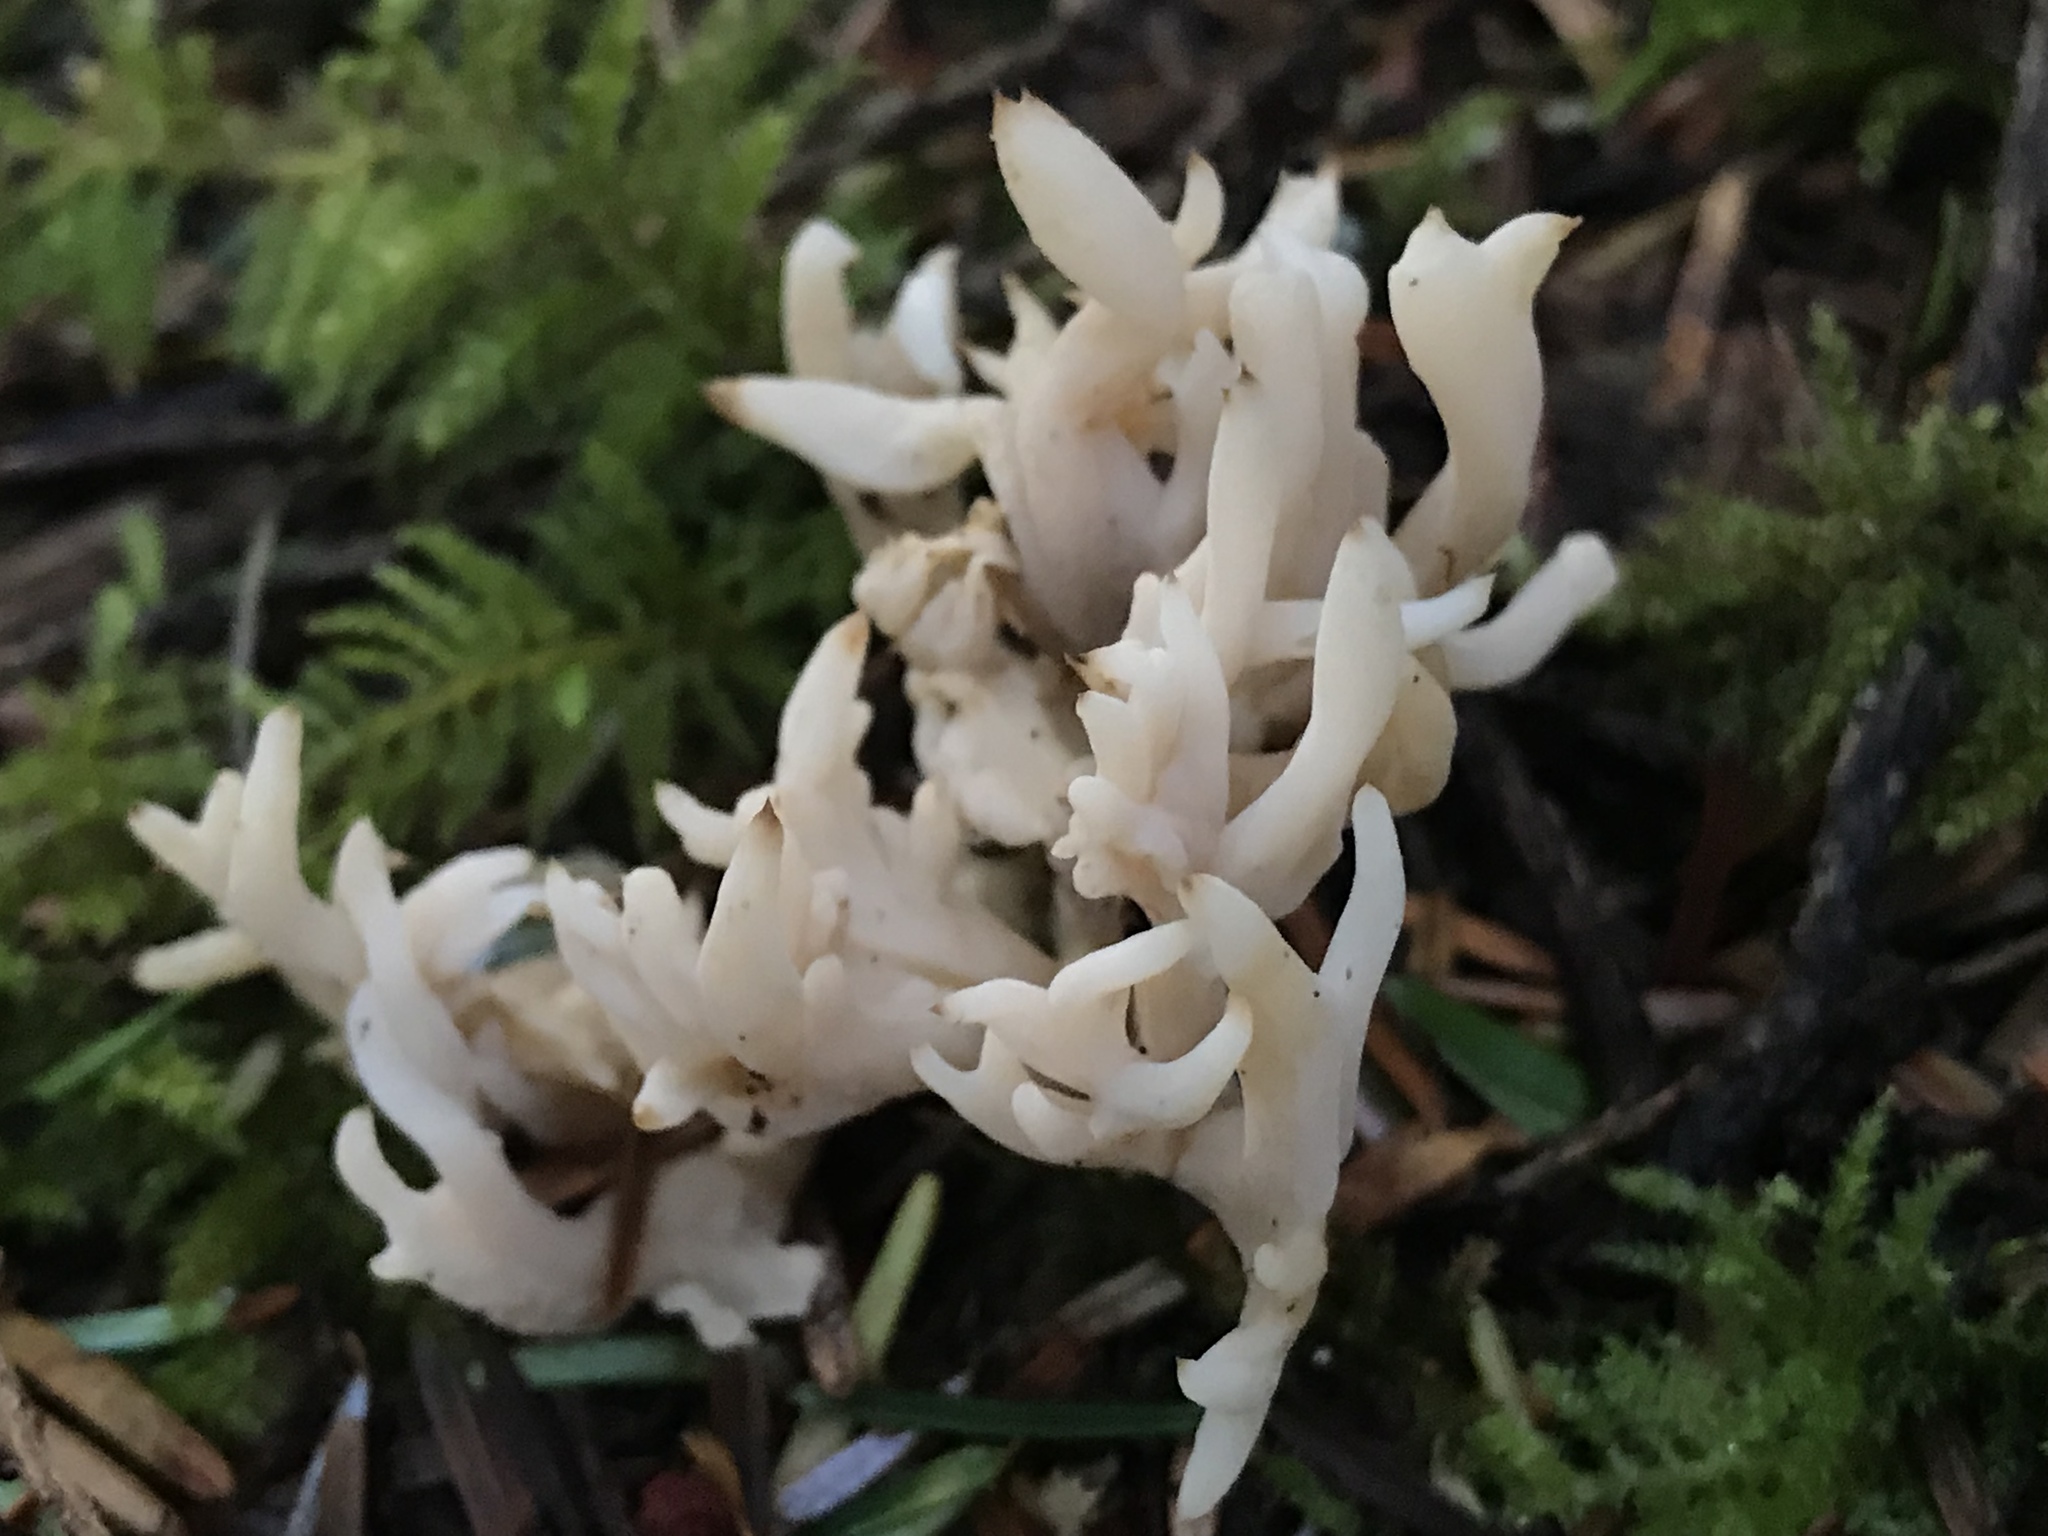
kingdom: Fungi
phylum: Basidiomycota
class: Agaricomycetes
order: Cantharellales
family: Hydnaceae
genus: Clavulina
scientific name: Clavulina coralloides
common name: Crested coral
